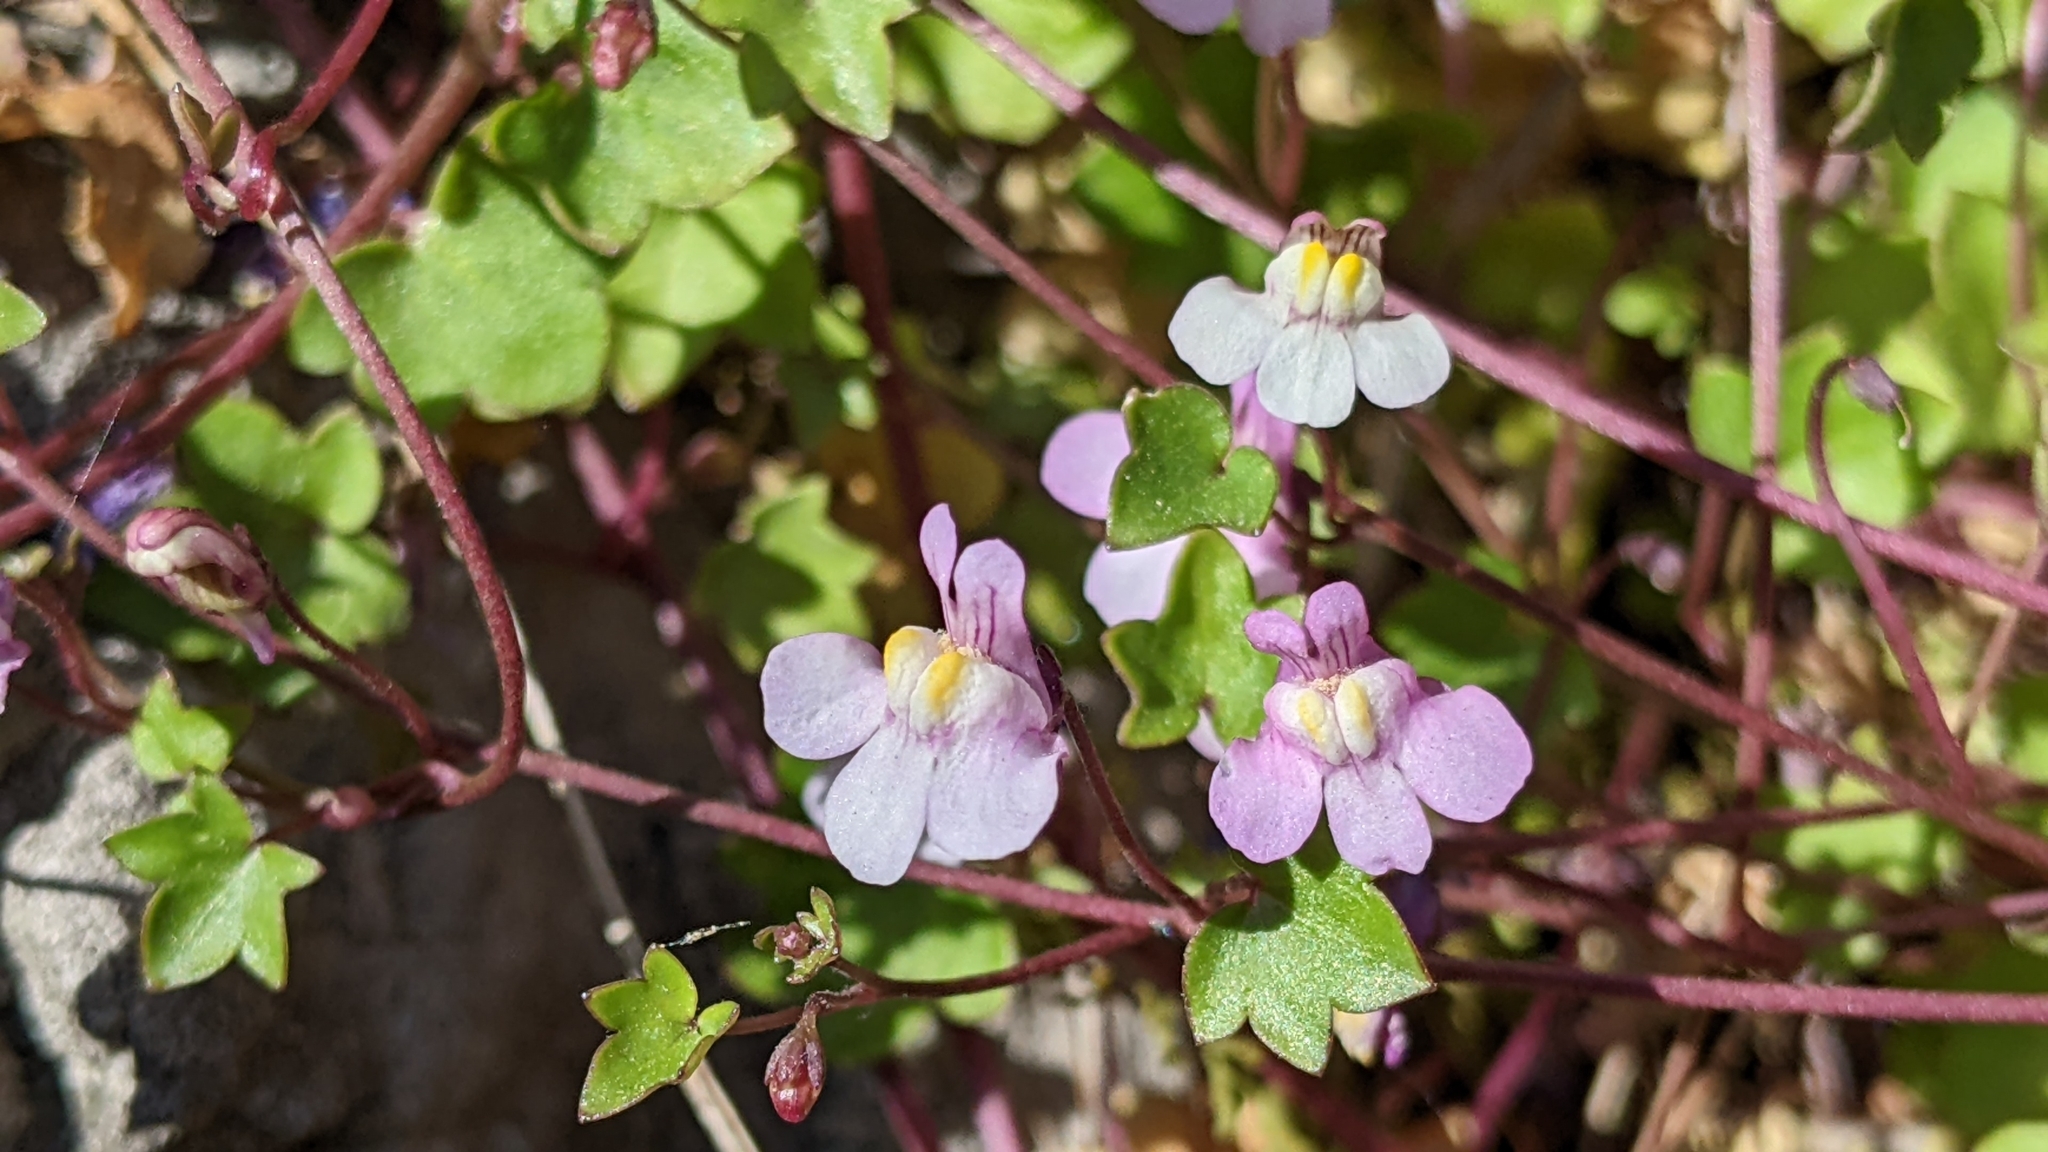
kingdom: Plantae
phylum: Tracheophyta
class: Magnoliopsida
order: Lamiales
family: Plantaginaceae
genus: Cymbalaria
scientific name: Cymbalaria muralis
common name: Ivy-leaved toadflax
